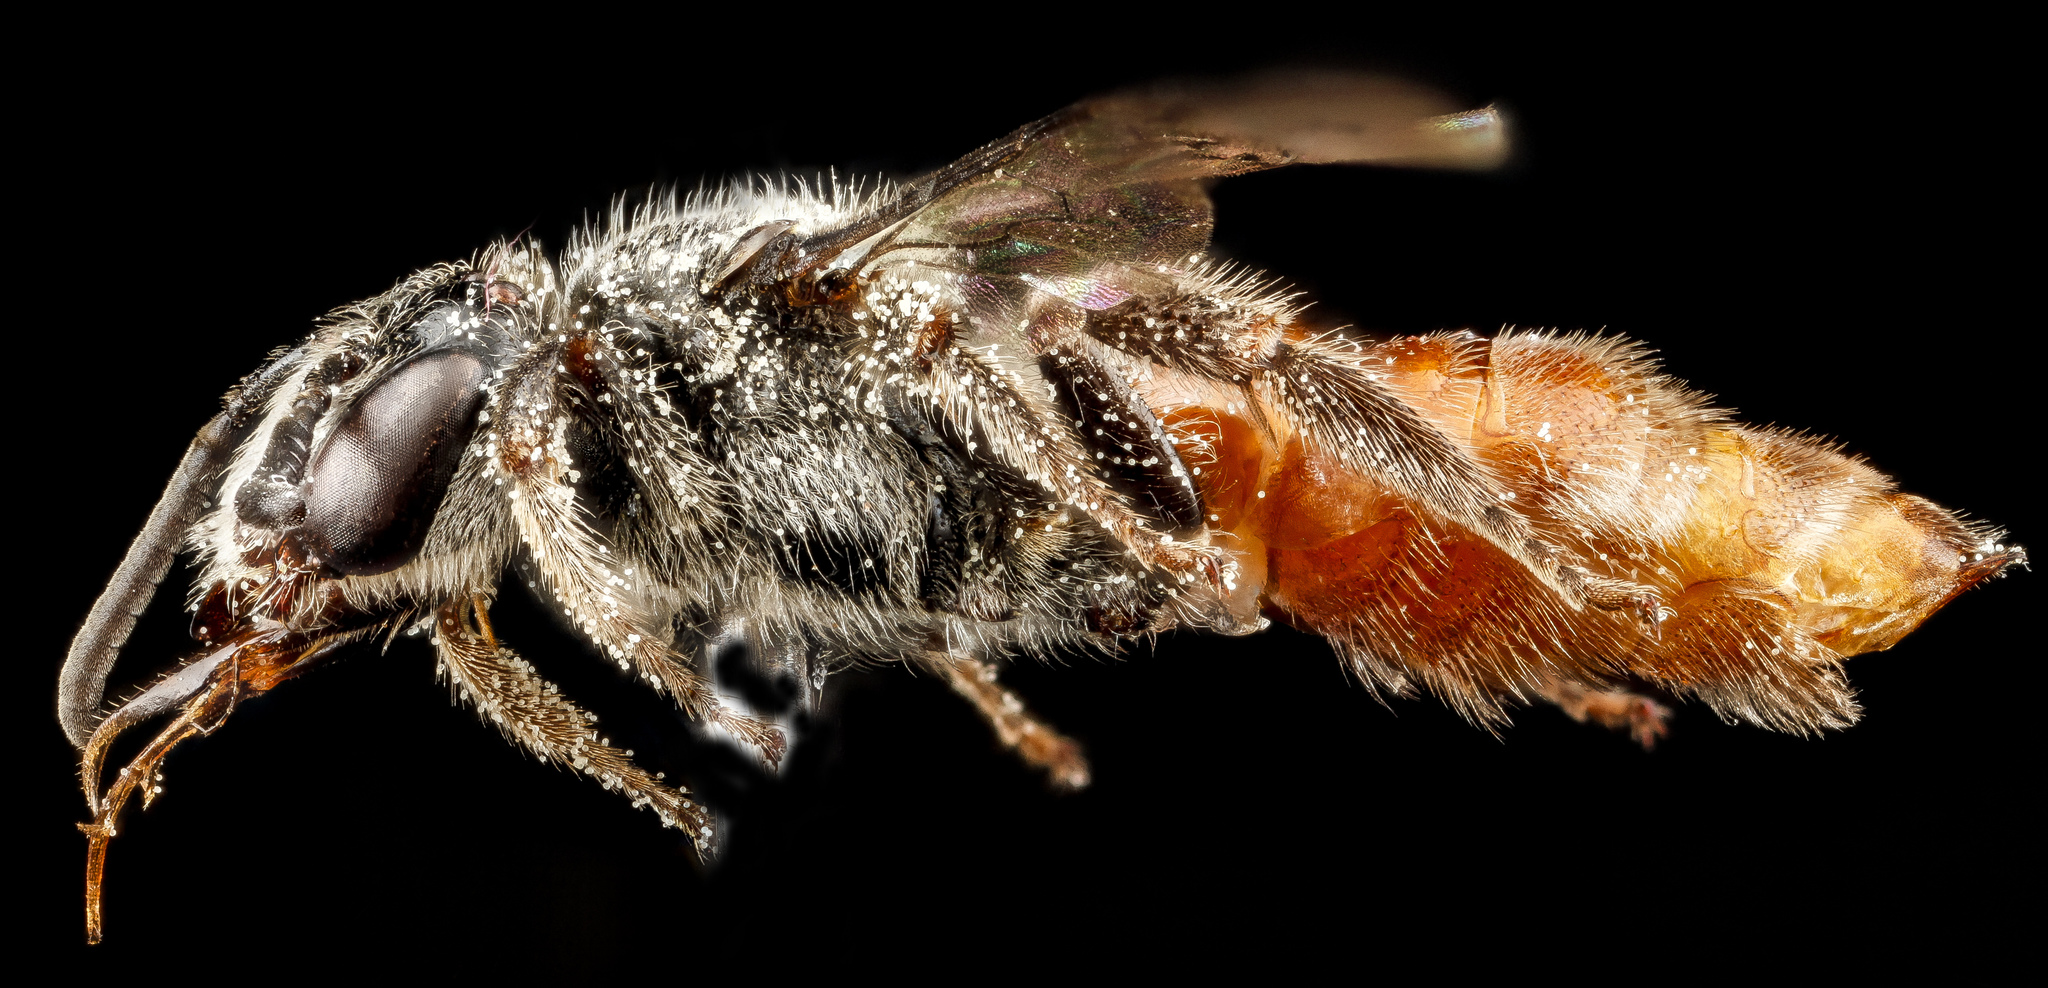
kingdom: Animalia
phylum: Arthropoda
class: Insecta
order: Hymenoptera
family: Apidae
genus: Brachynomada
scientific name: Brachynomada grindeliae
